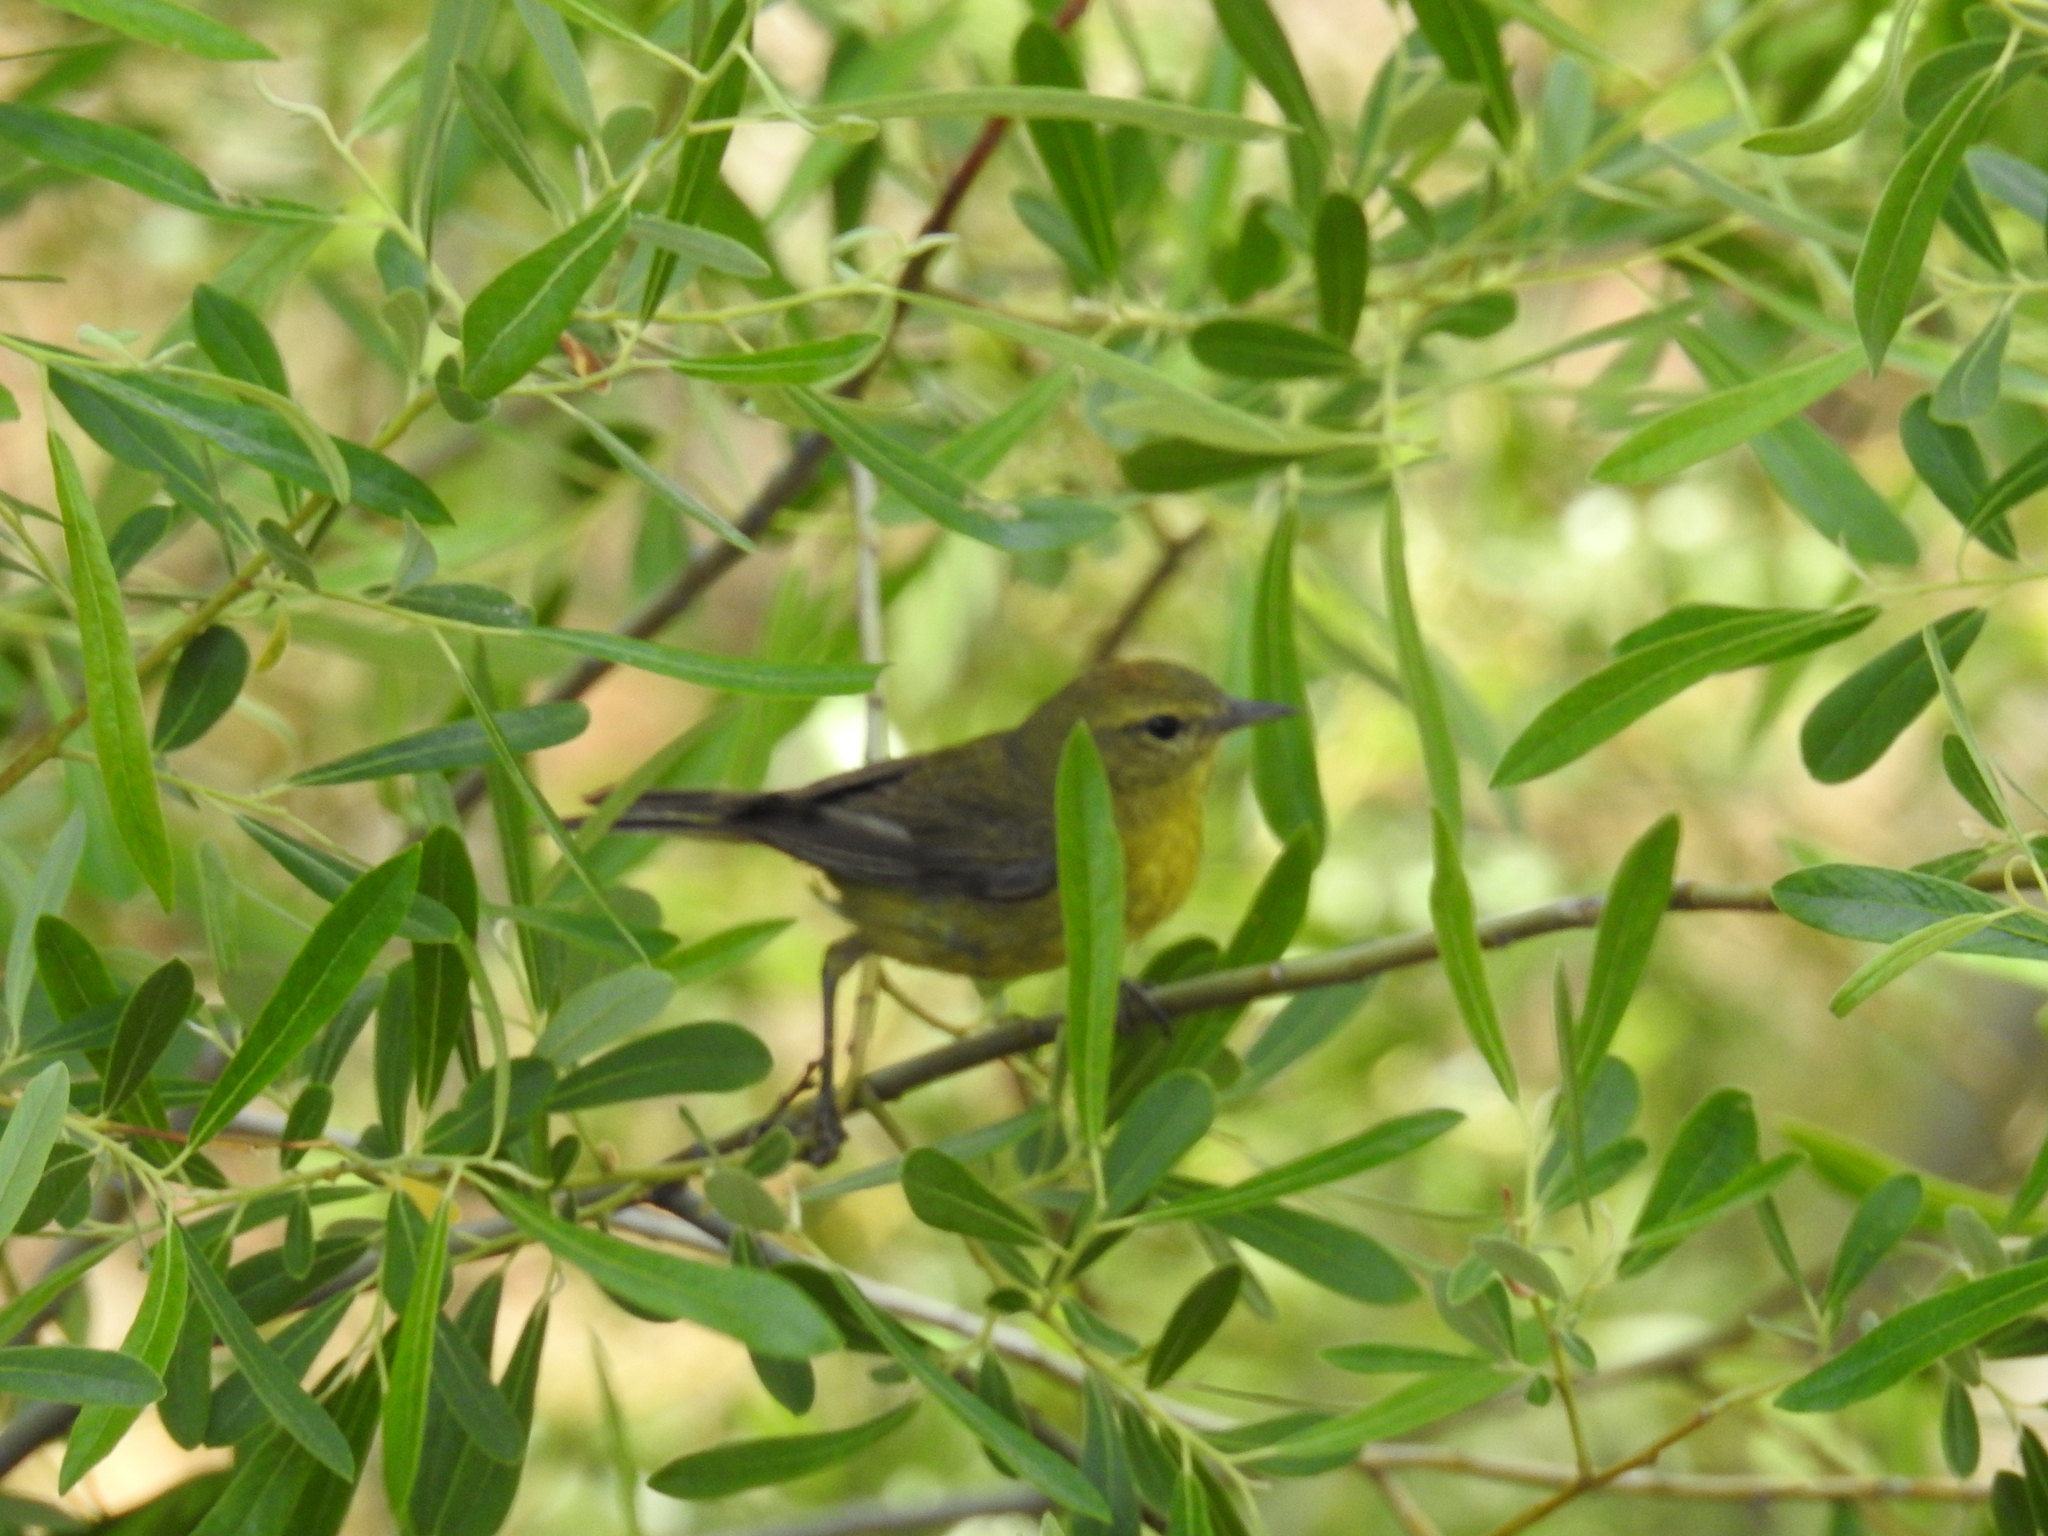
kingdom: Animalia
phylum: Chordata
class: Aves
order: Passeriformes
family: Parulidae
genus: Leiothlypis
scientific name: Leiothlypis celata
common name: Orange-crowned warbler
